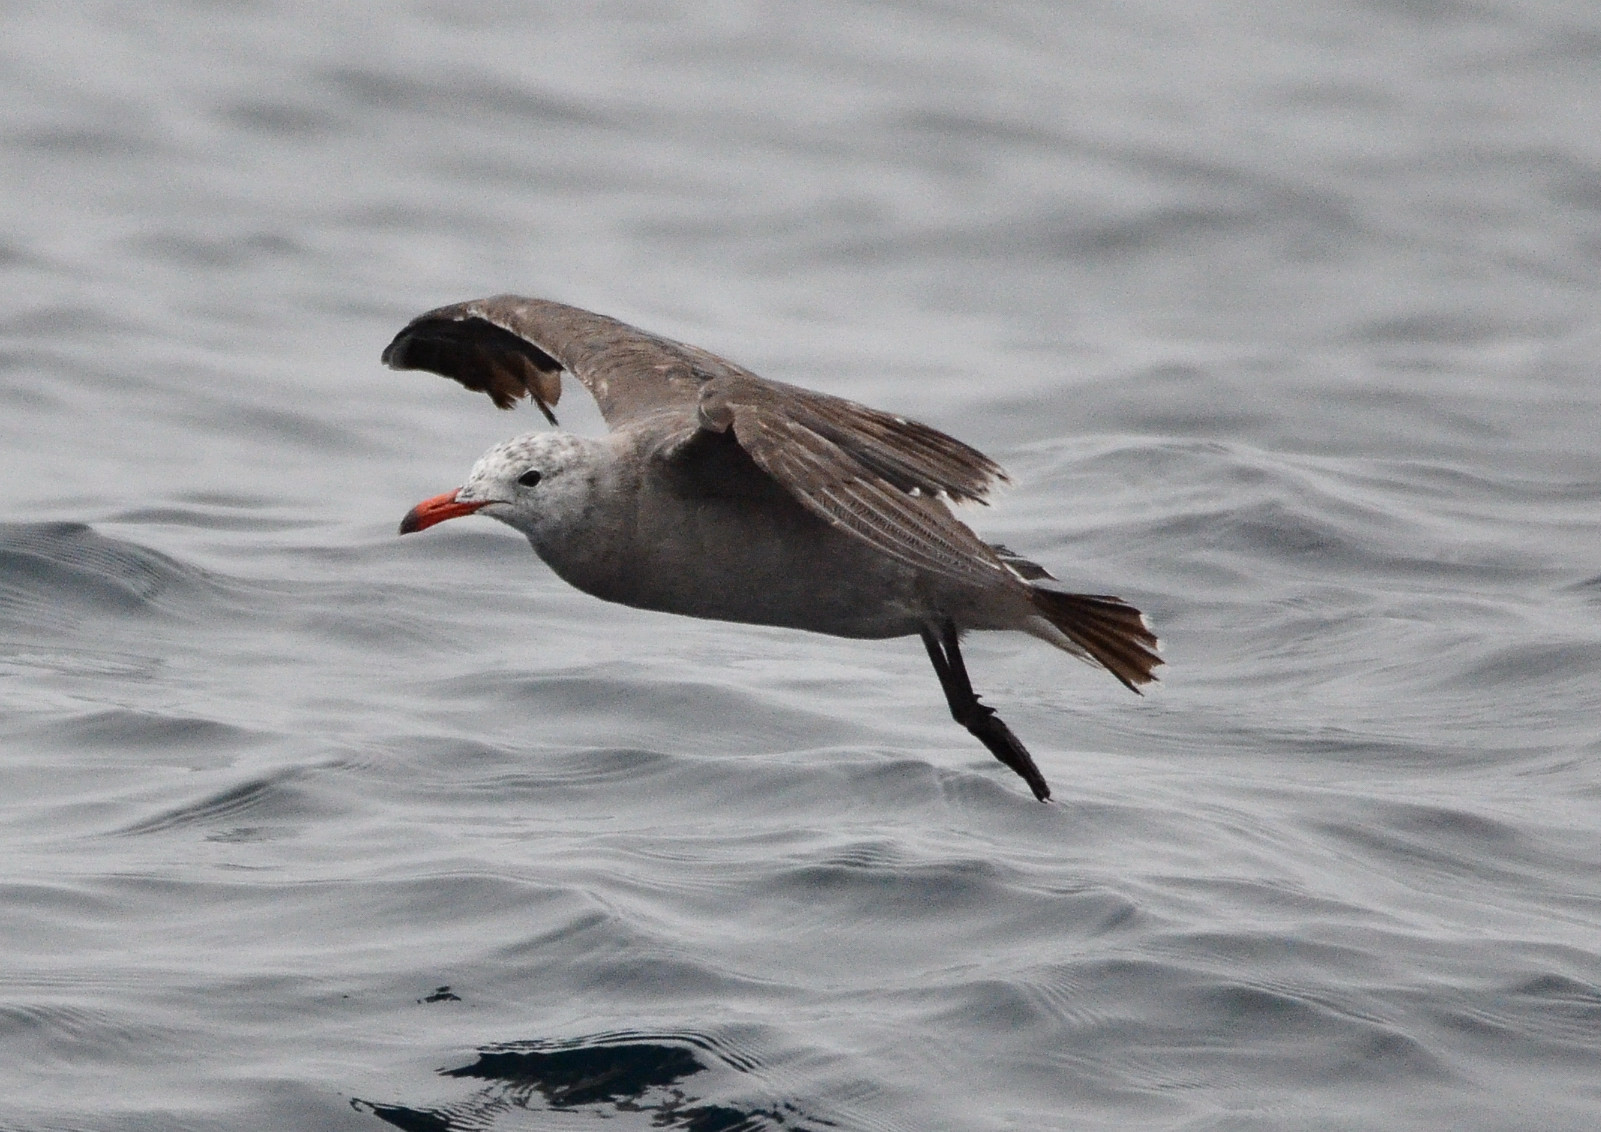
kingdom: Animalia
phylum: Chordata
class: Aves
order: Charadriiformes
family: Laridae
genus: Larus
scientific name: Larus heermanni
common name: Heermann's gull
